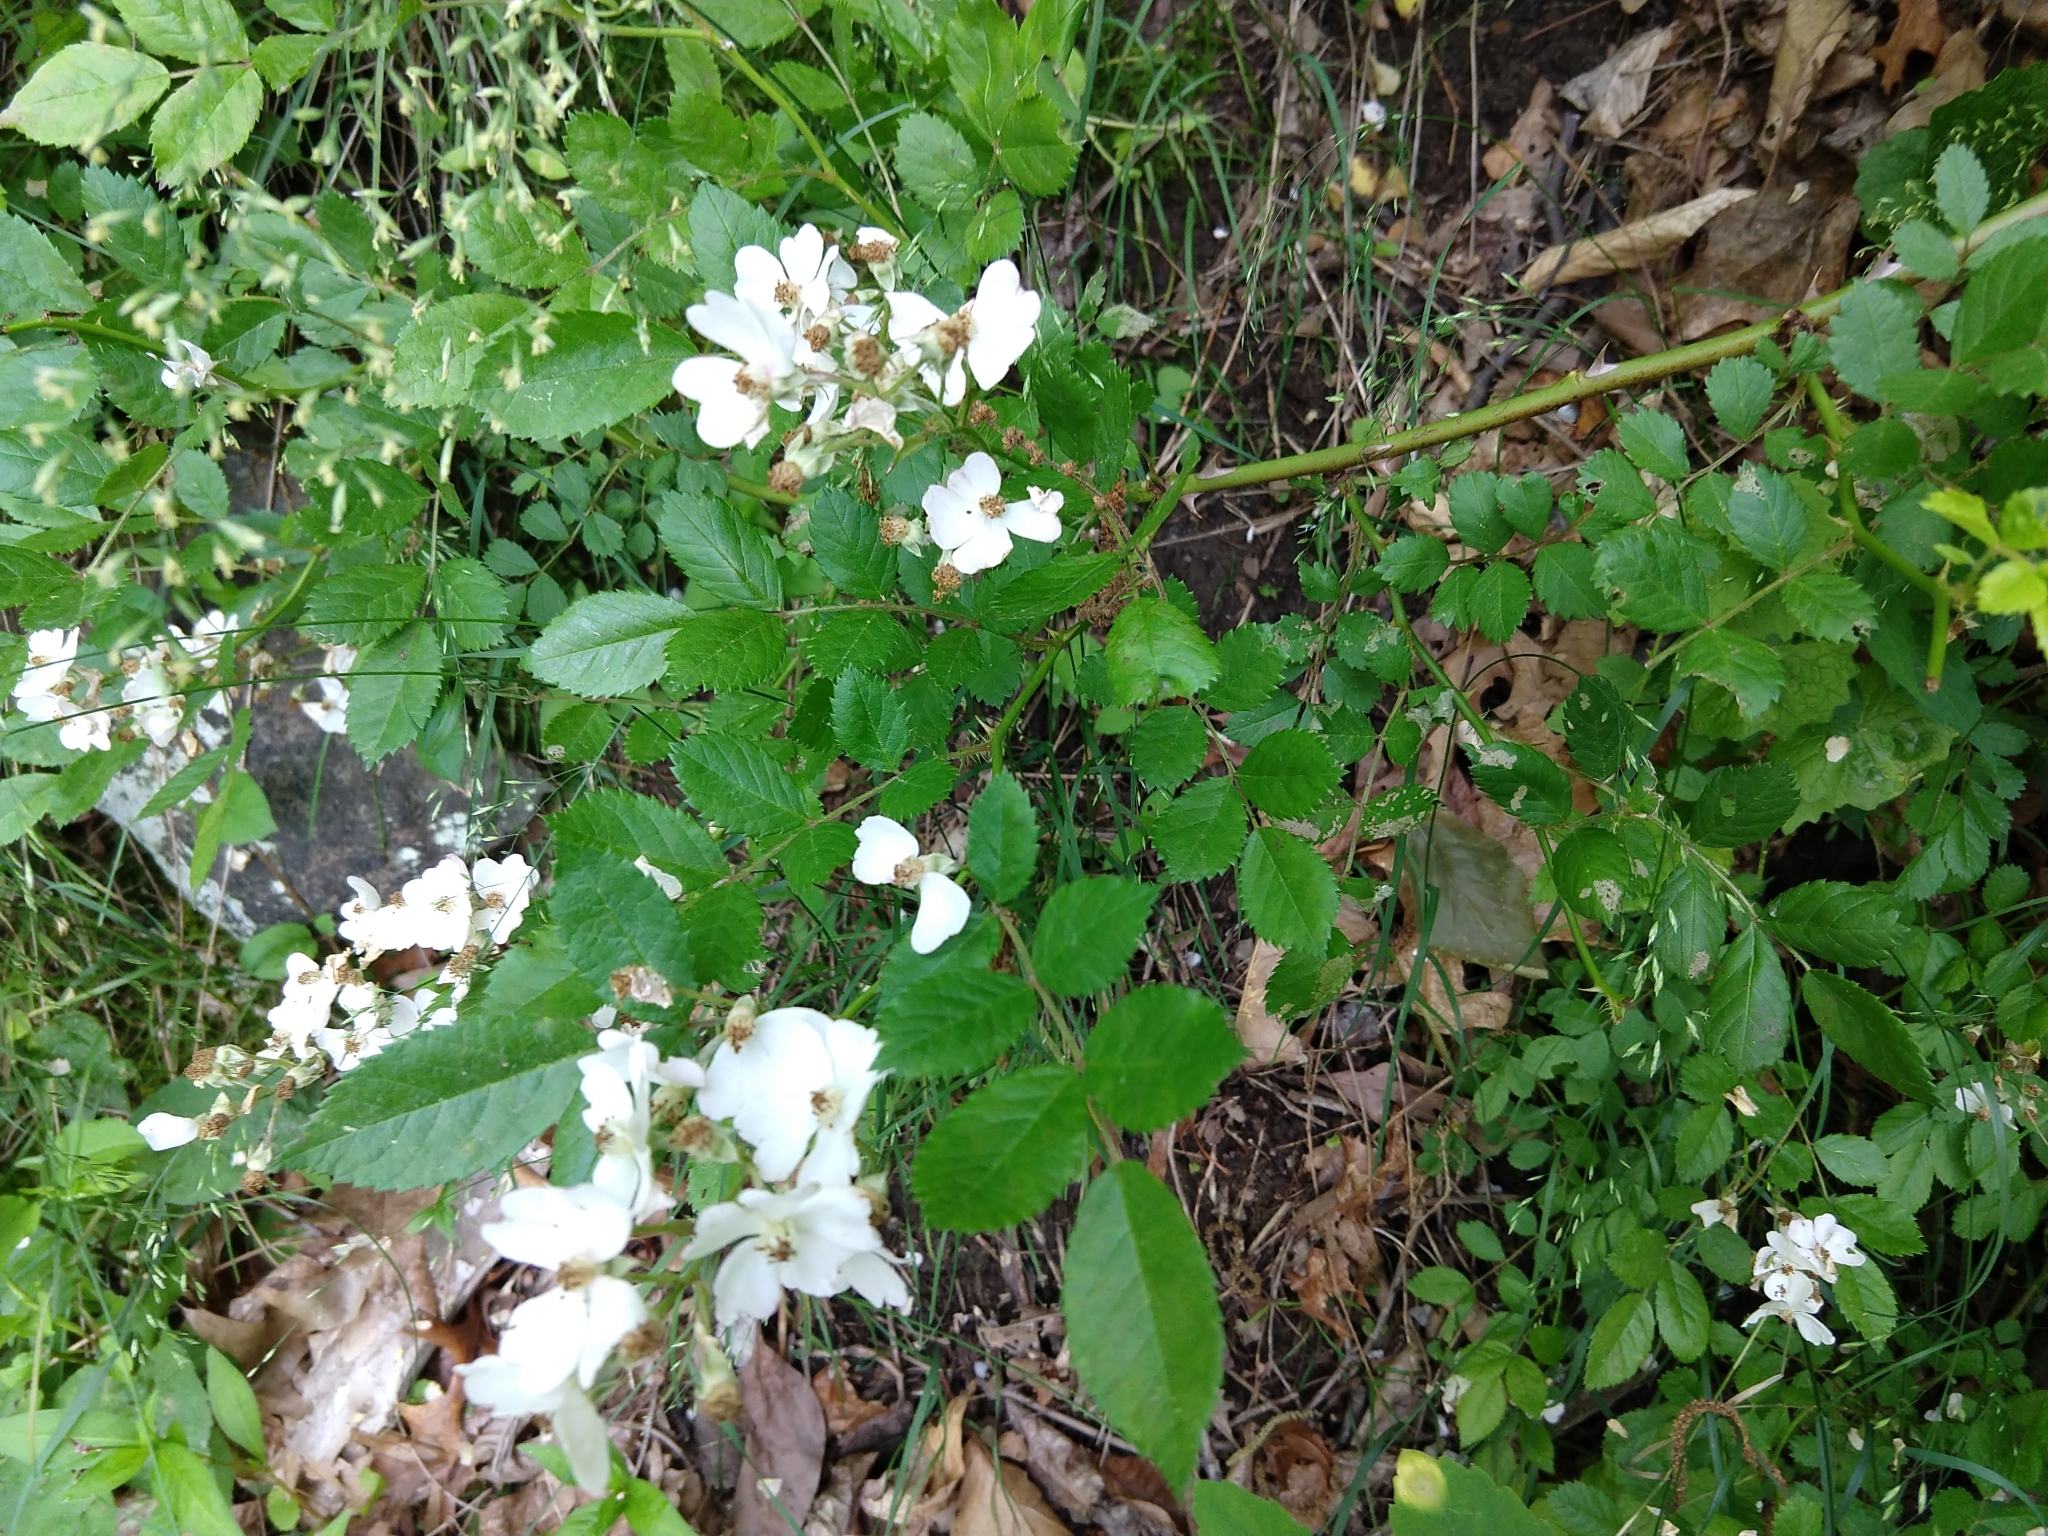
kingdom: Plantae
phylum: Tracheophyta
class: Magnoliopsida
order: Rosales
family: Rosaceae
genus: Rosa
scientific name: Rosa multiflora
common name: Multiflora rose
